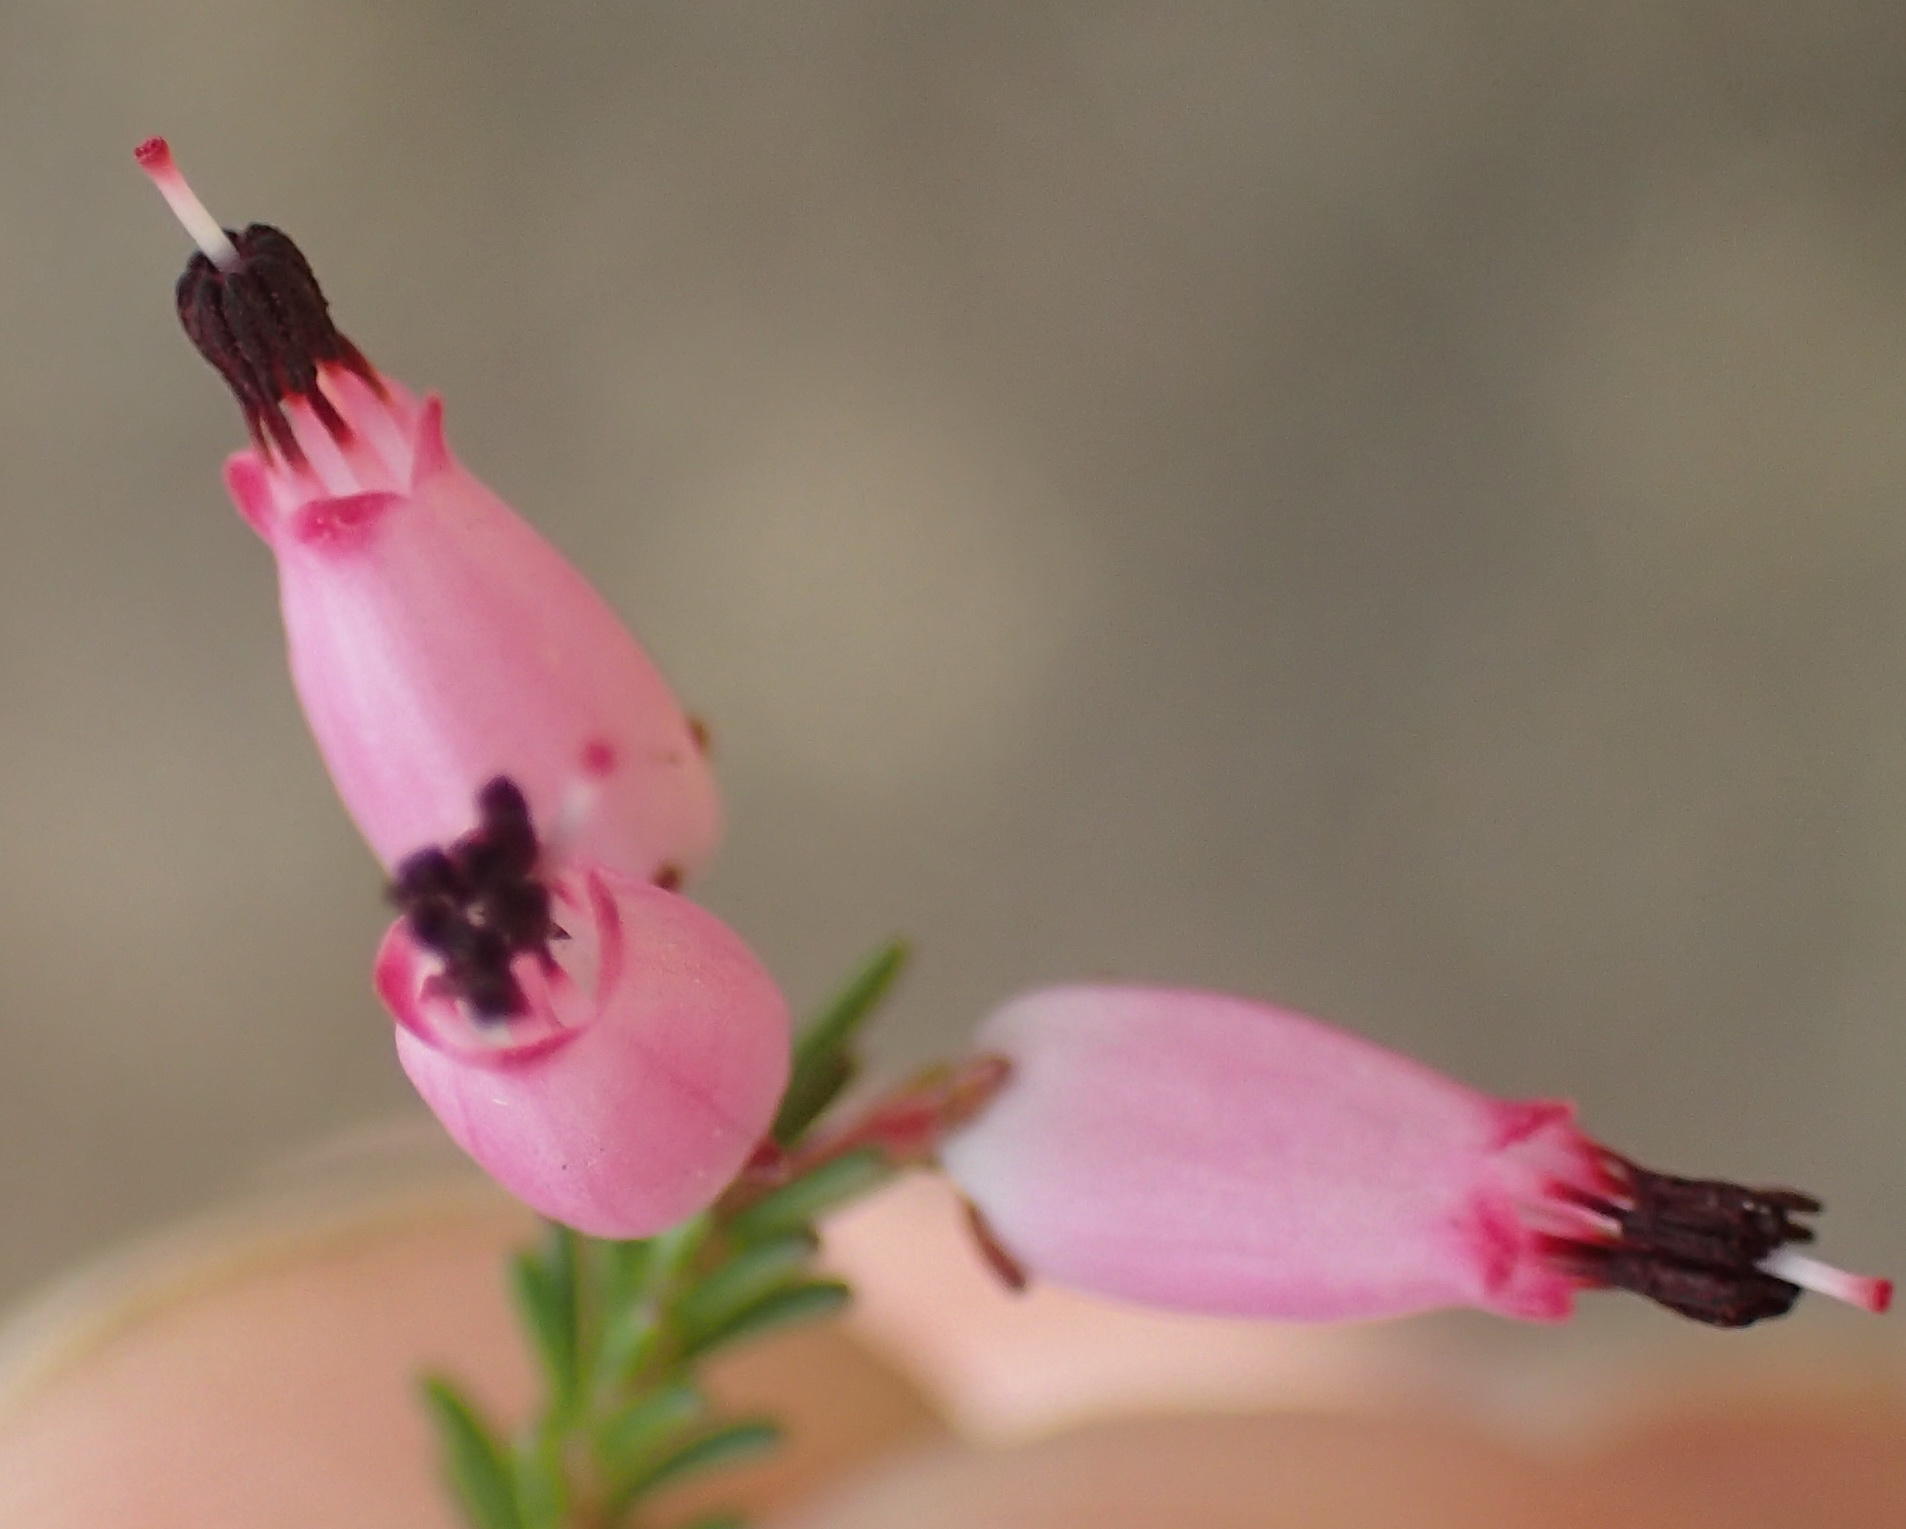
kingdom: Plantae
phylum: Tracheophyta
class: Magnoliopsida
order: Ericales
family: Ericaceae
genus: Erica
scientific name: Erica nutans
